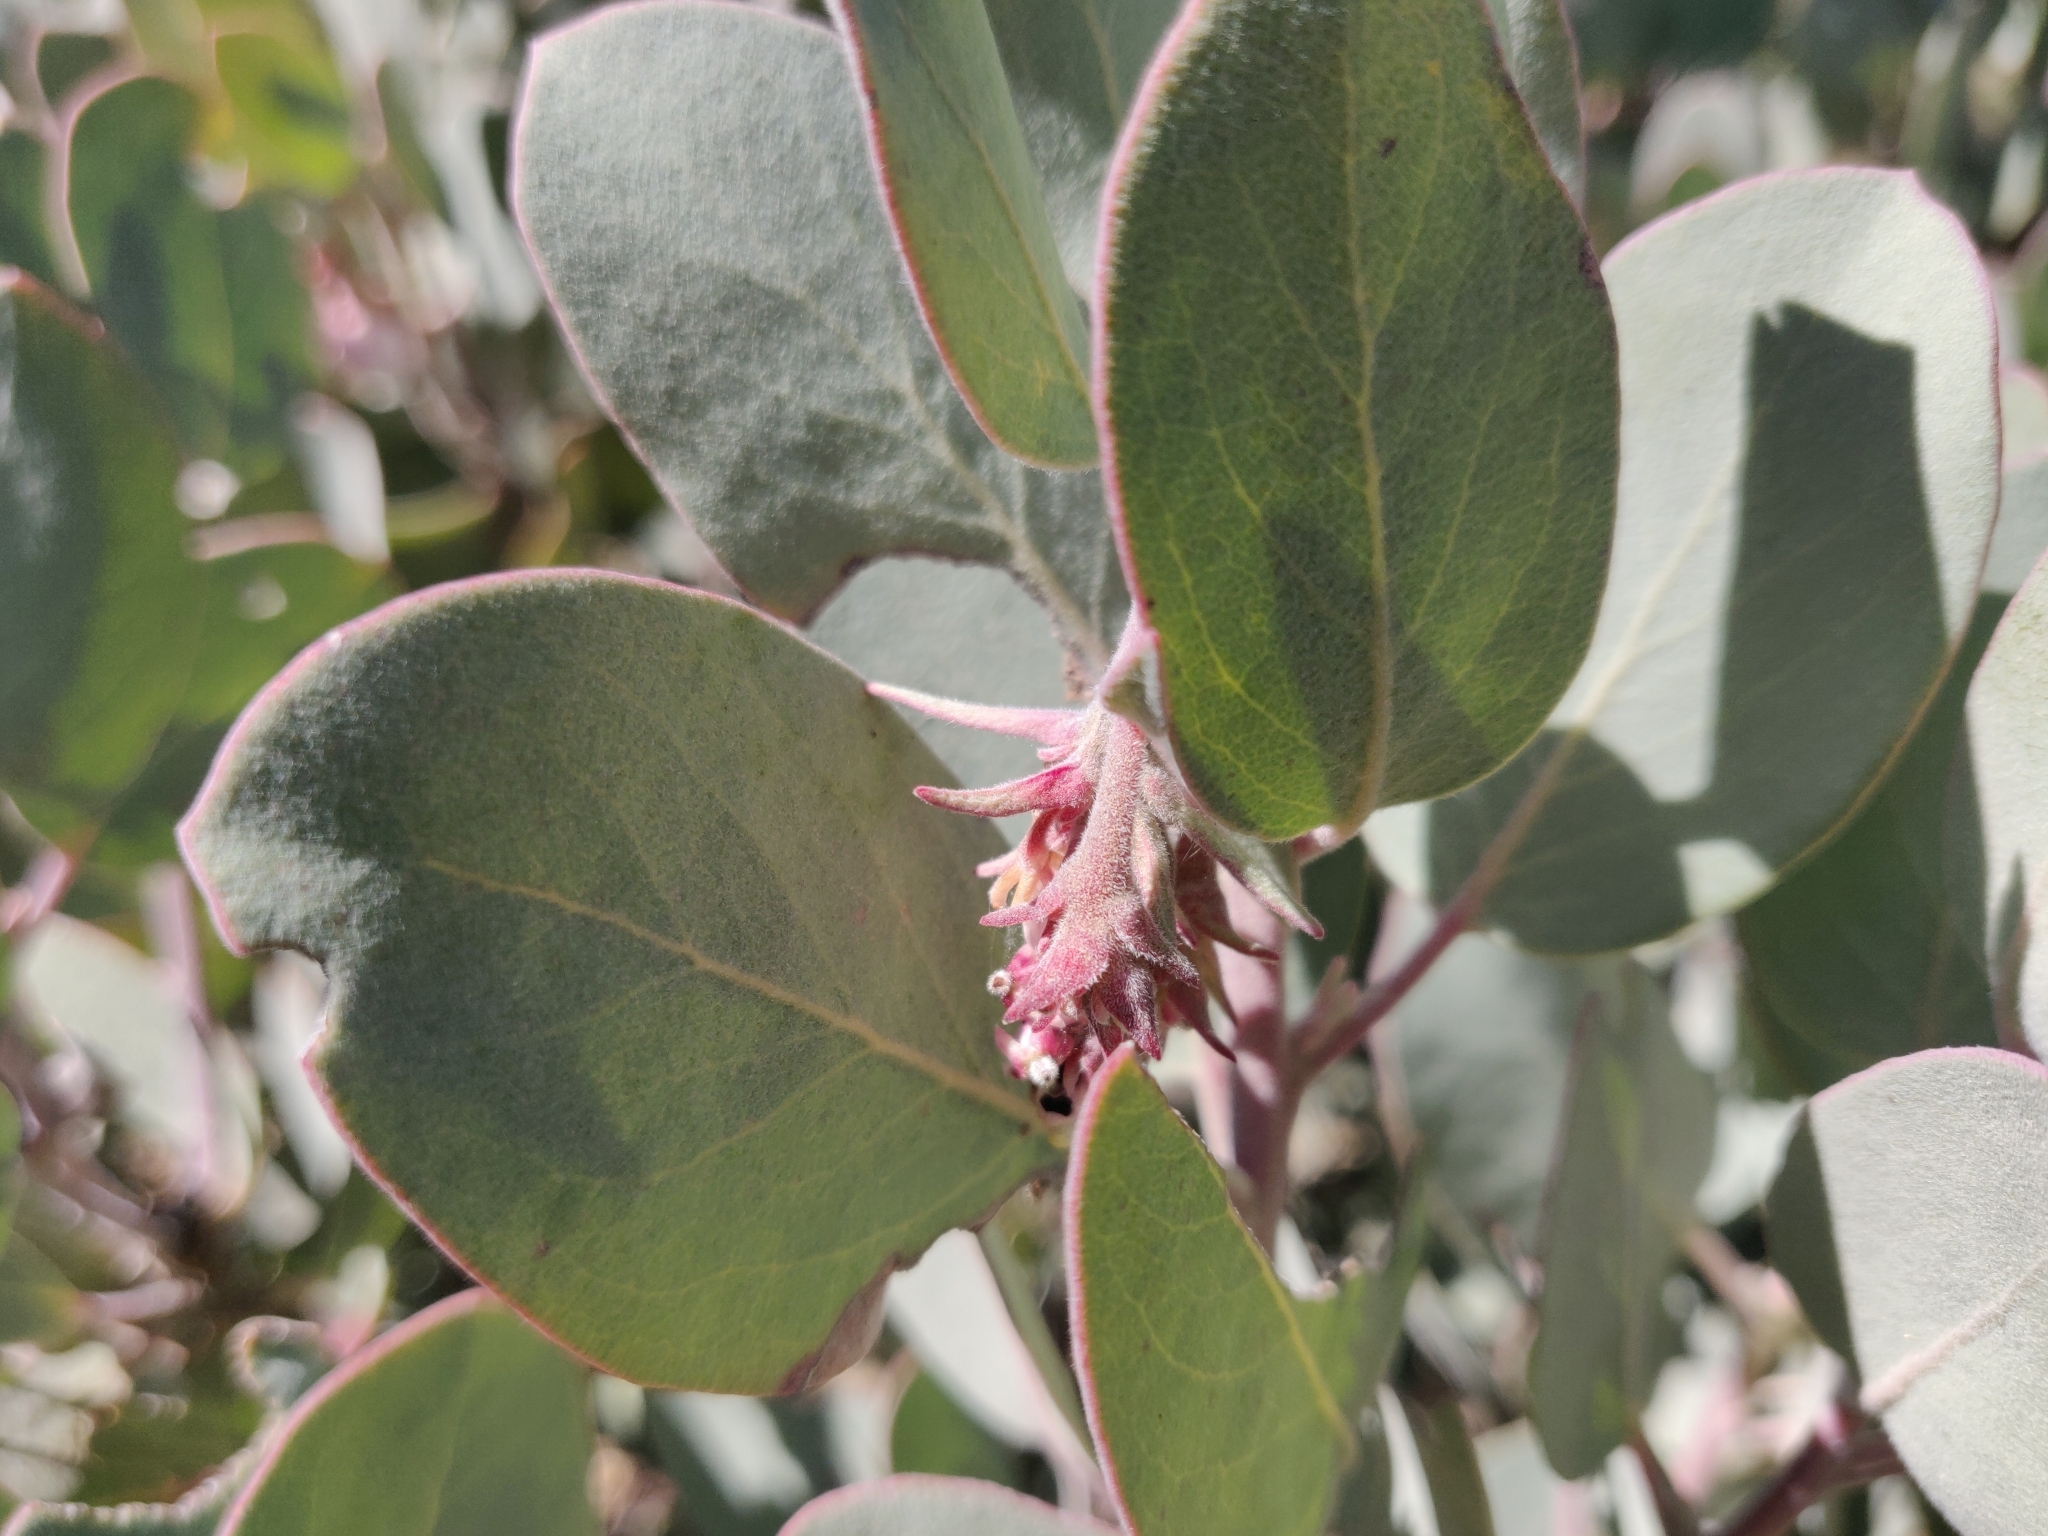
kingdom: Plantae
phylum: Tracheophyta
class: Magnoliopsida
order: Ericales
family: Ericaceae
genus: Arctostaphylos
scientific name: Arctostaphylos canescens
